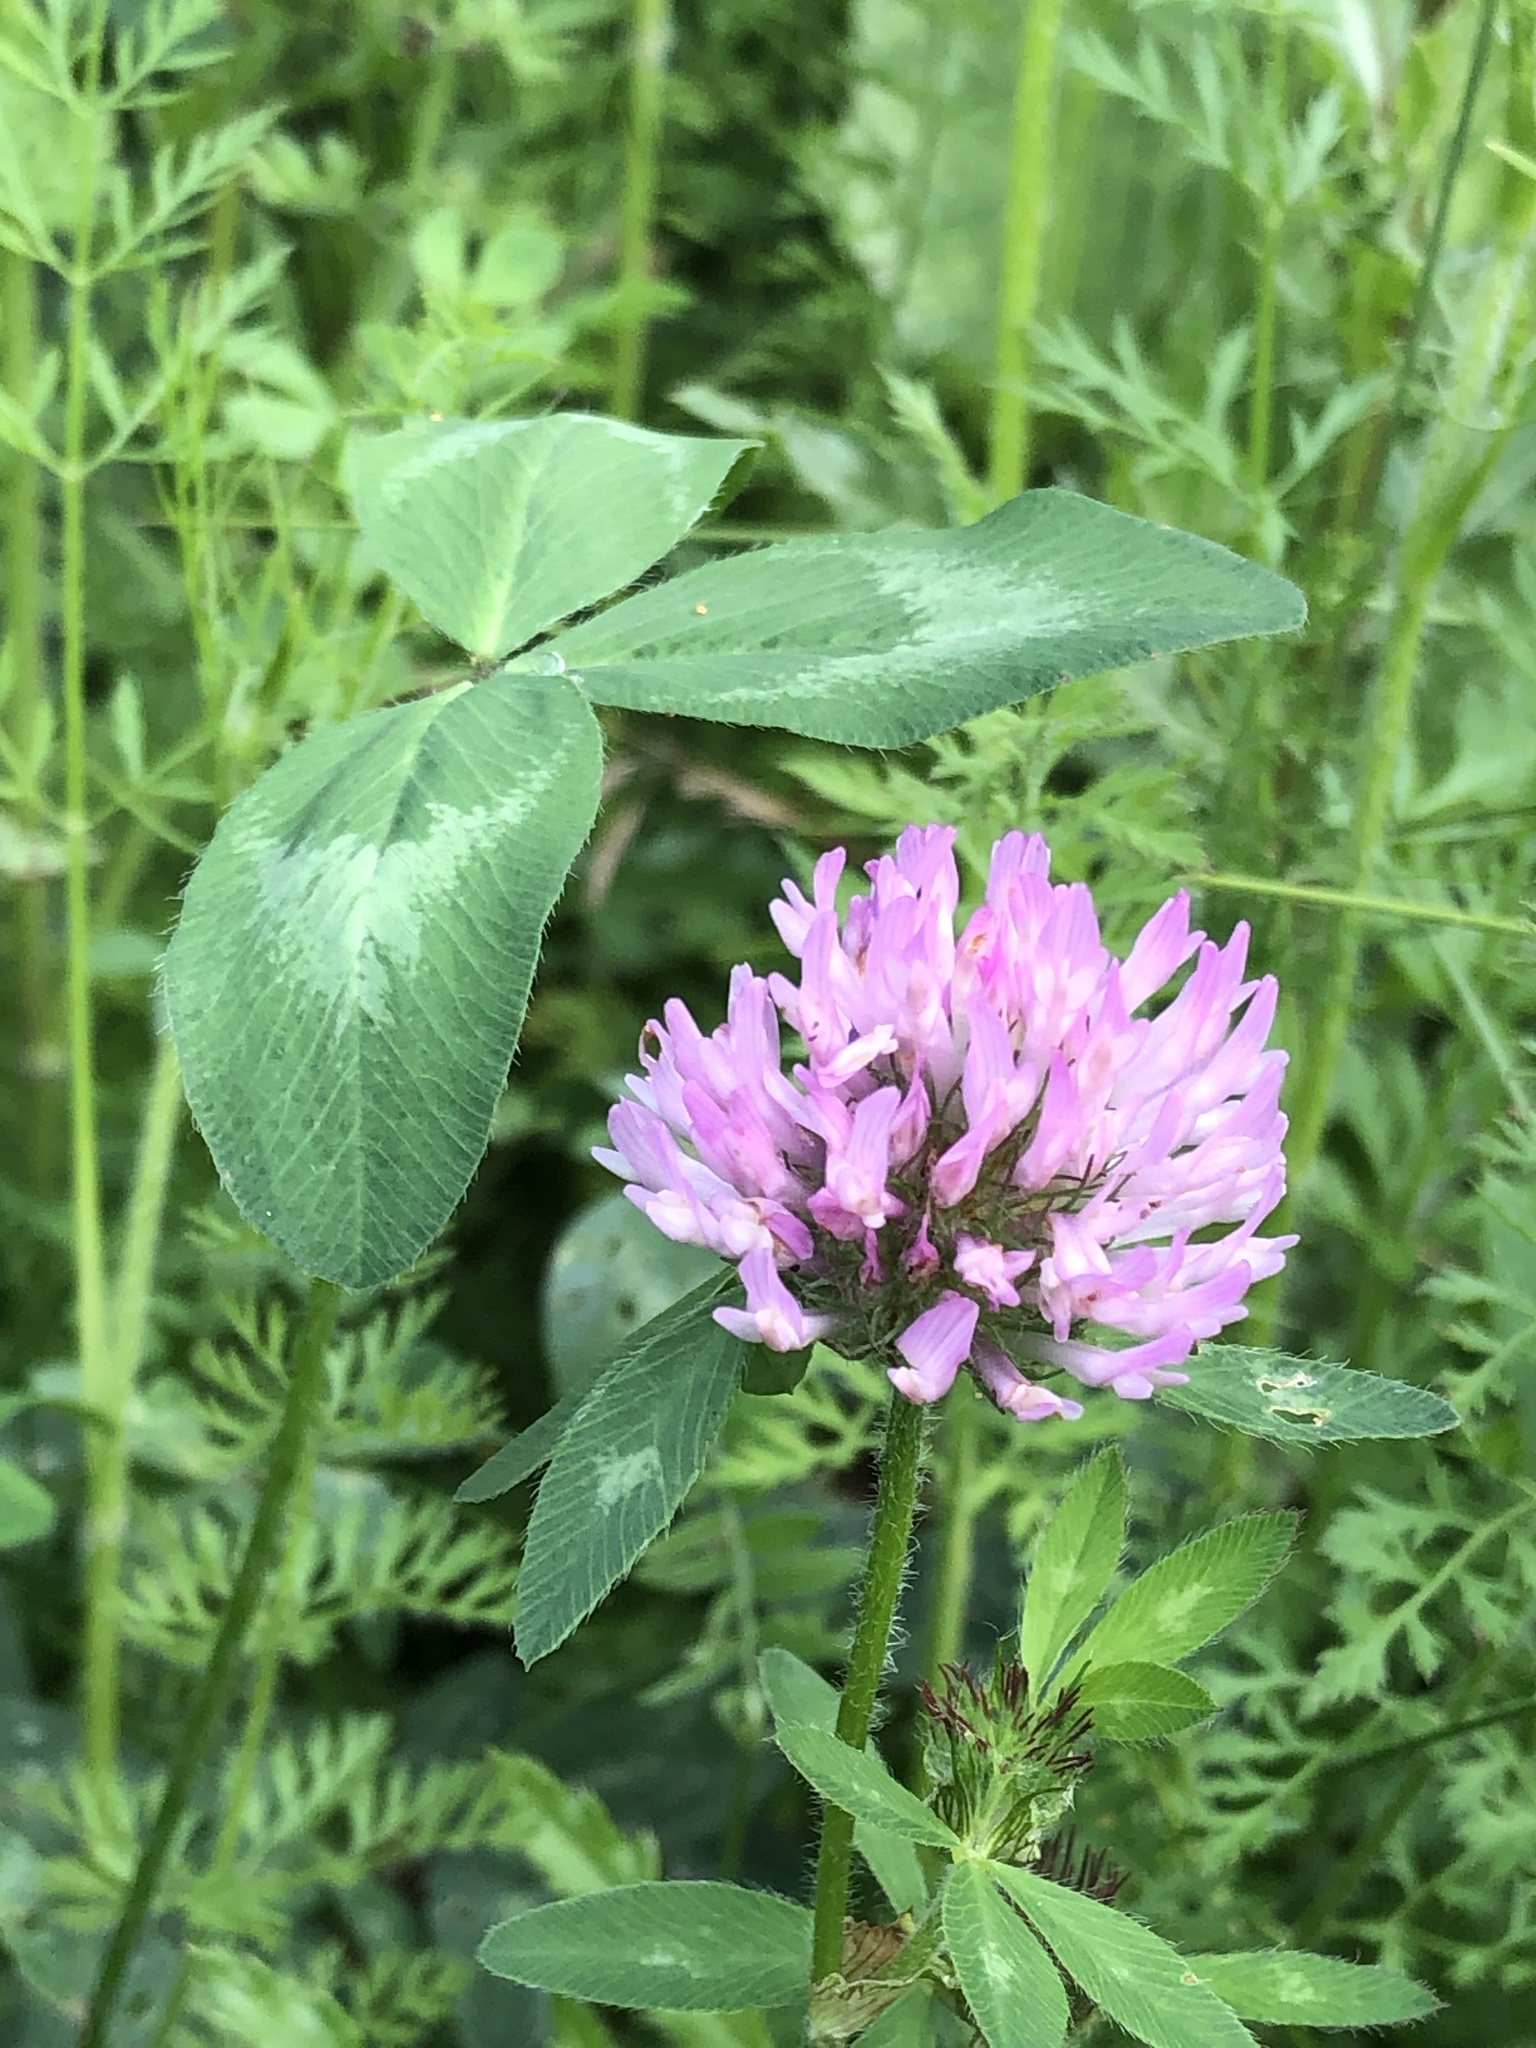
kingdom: Plantae
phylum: Tracheophyta
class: Magnoliopsida
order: Fabales
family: Fabaceae
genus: Trifolium
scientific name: Trifolium pratense
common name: Red clover
